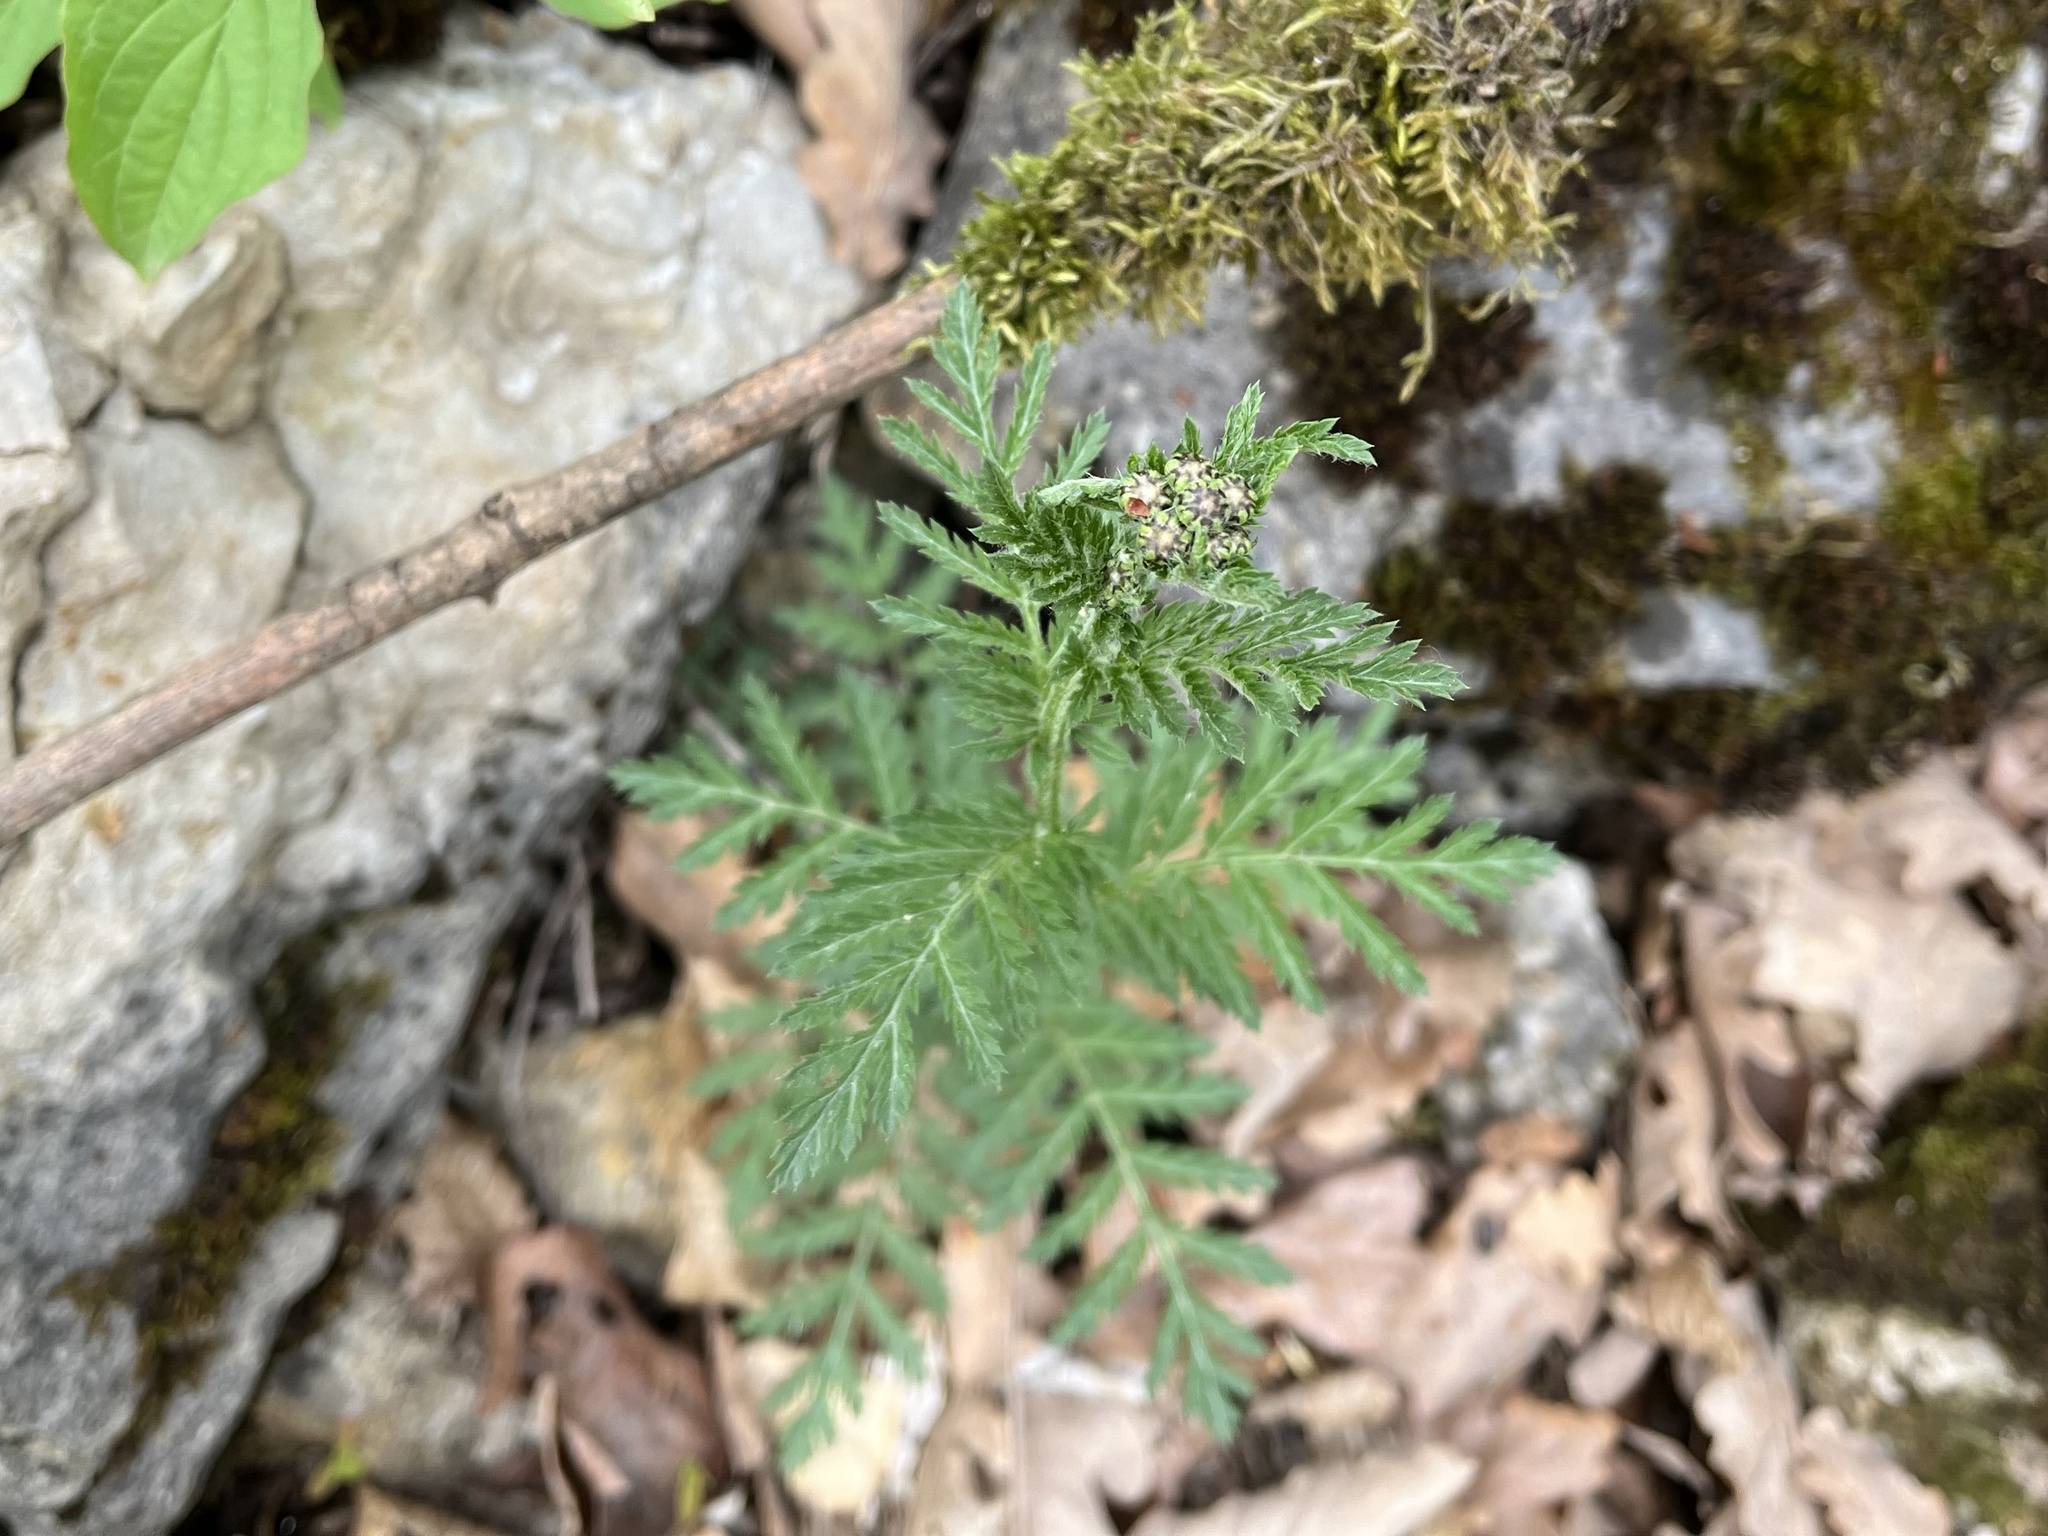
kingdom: Plantae
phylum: Tracheophyta
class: Magnoliopsida
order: Asterales
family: Asteraceae
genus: Tanacetum
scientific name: Tanacetum corymbosum
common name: Scentless feverfew
